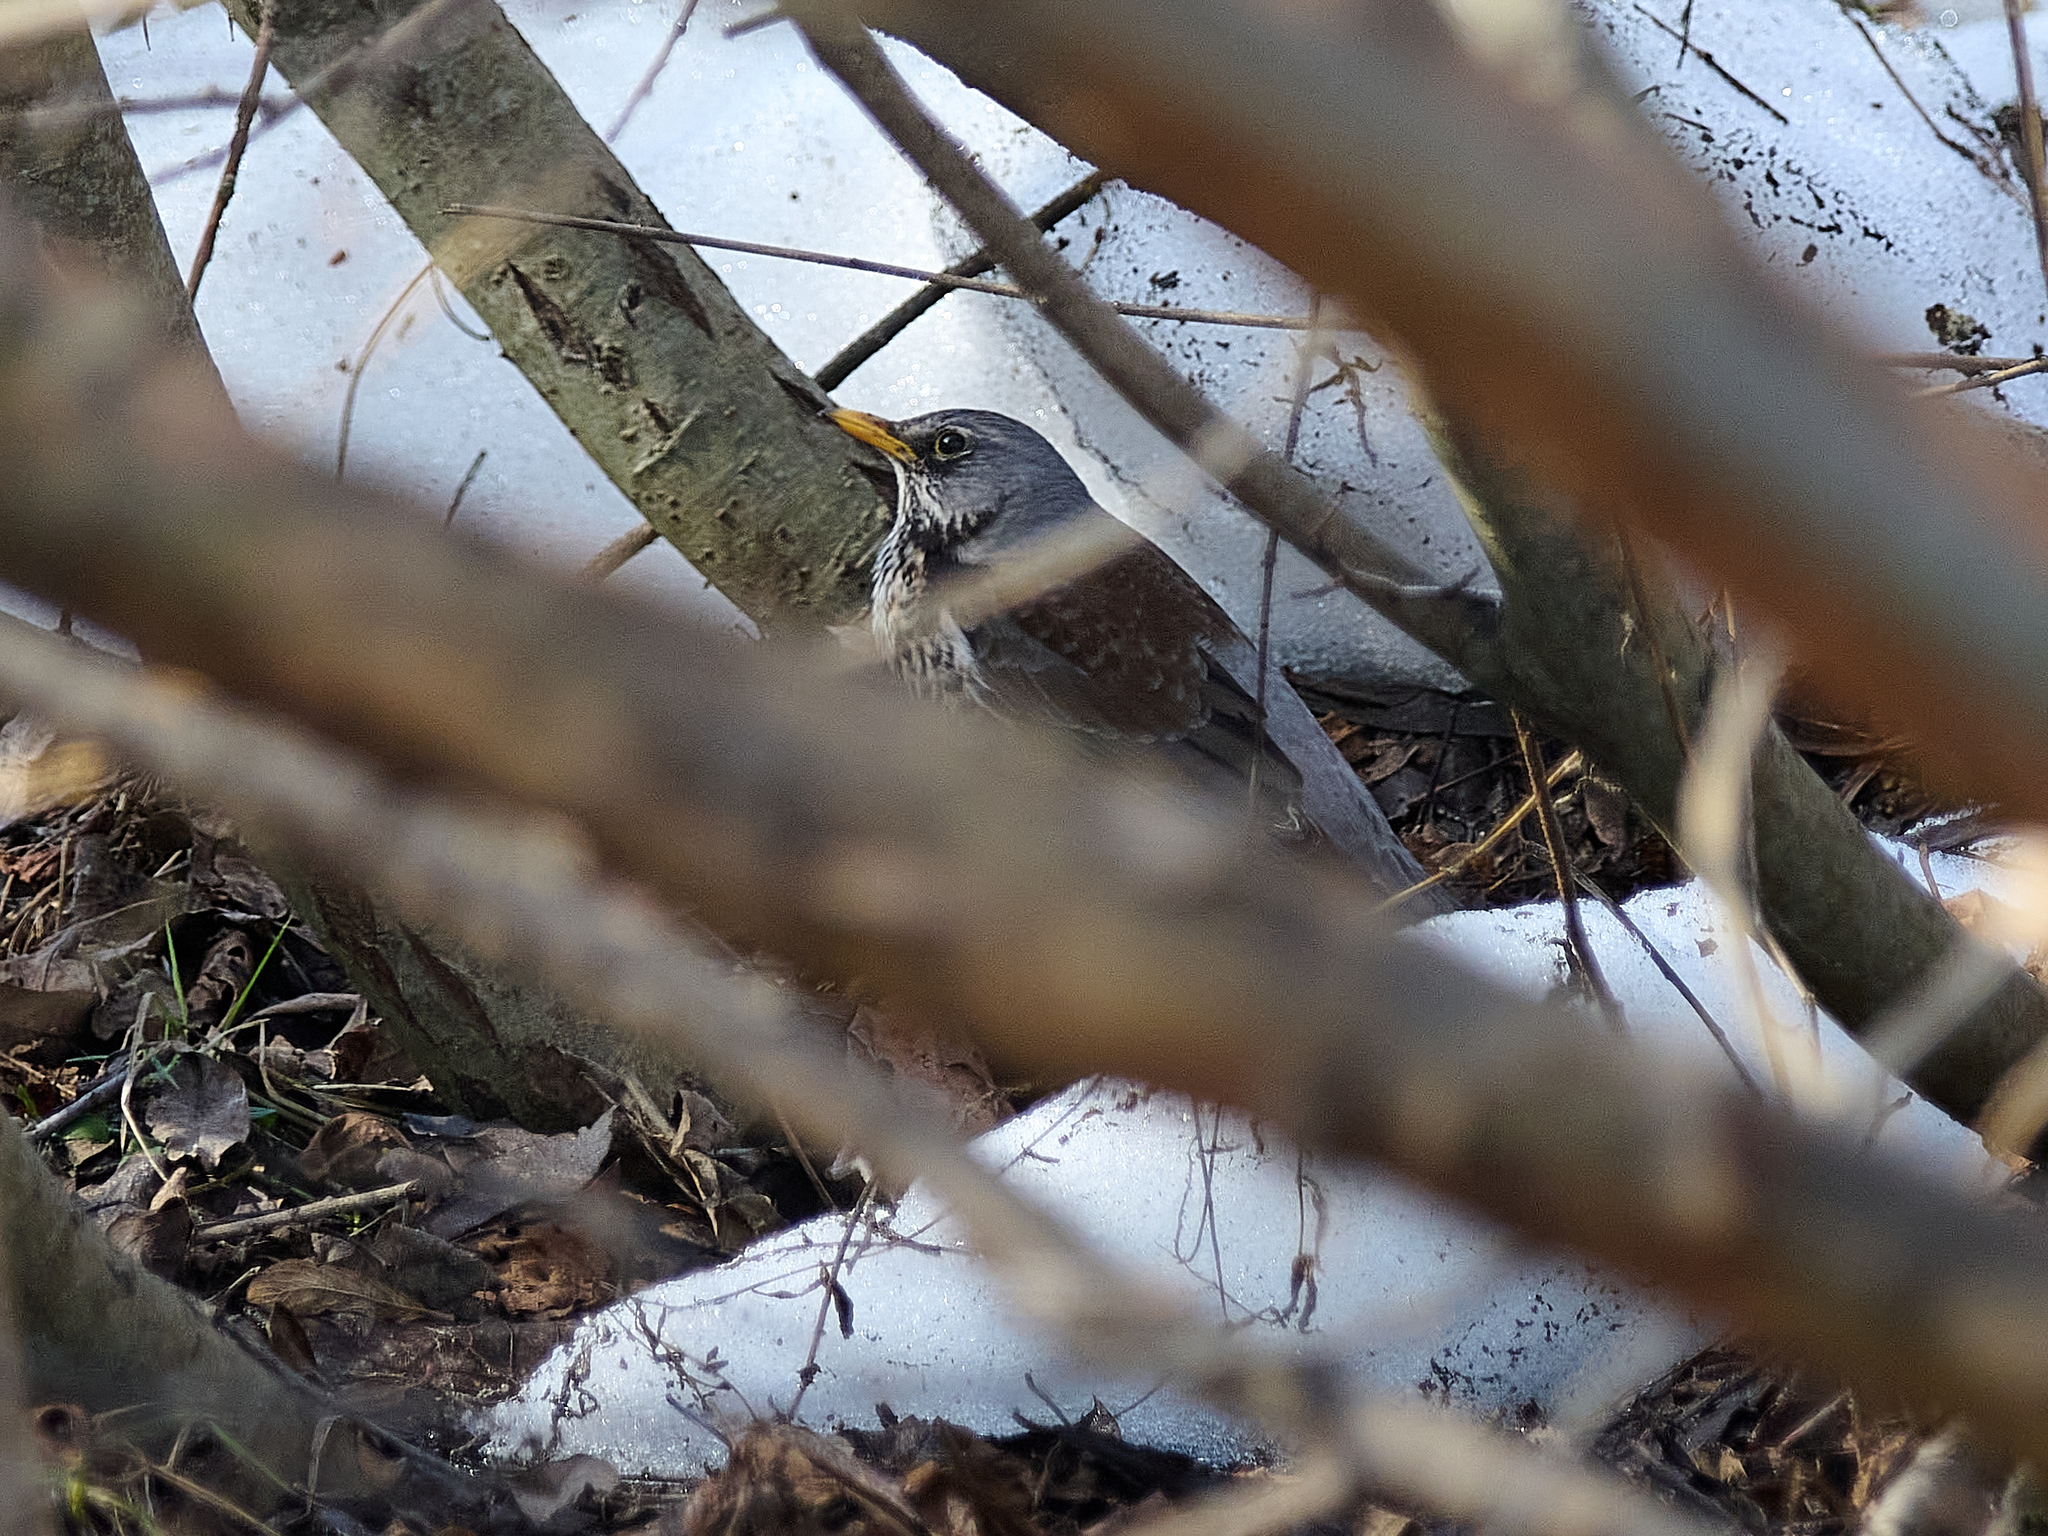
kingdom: Animalia
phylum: Chordata
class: Aves
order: Passeriformes
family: Turdidae
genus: Turdus
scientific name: Turdus pilaris
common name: Fieldfare
